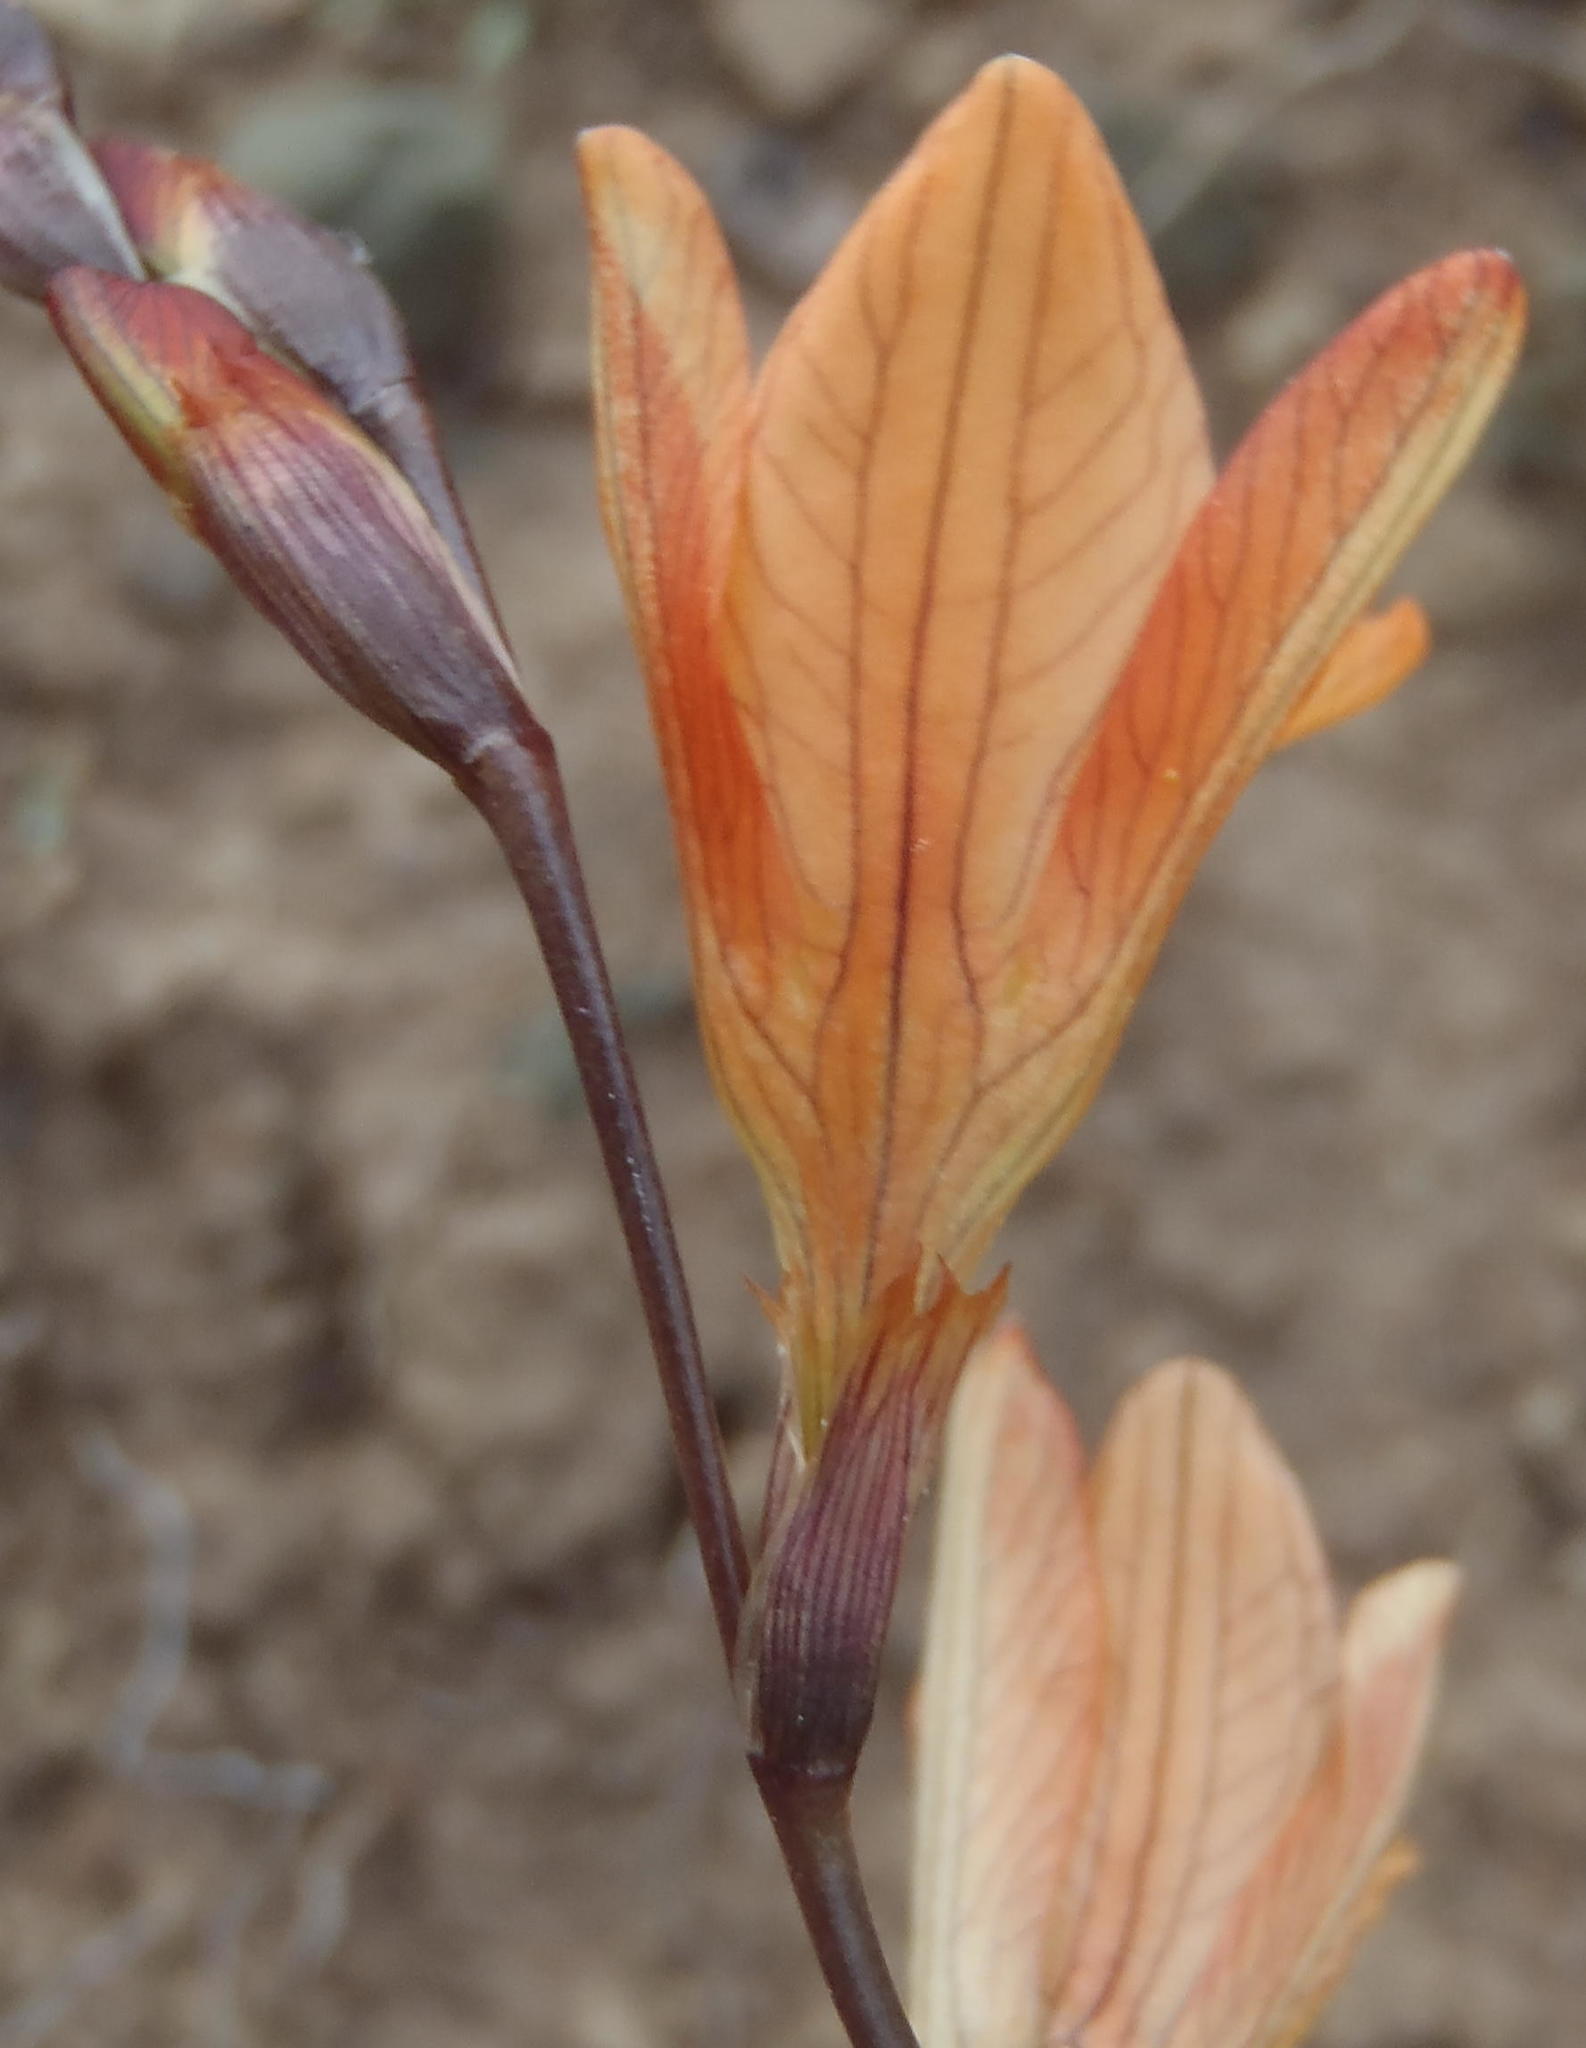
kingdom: Plantae
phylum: Tracheophyta
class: Liliopsida
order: Asparagales
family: Iridaceae
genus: Tritonia
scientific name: Tritonia disticha
